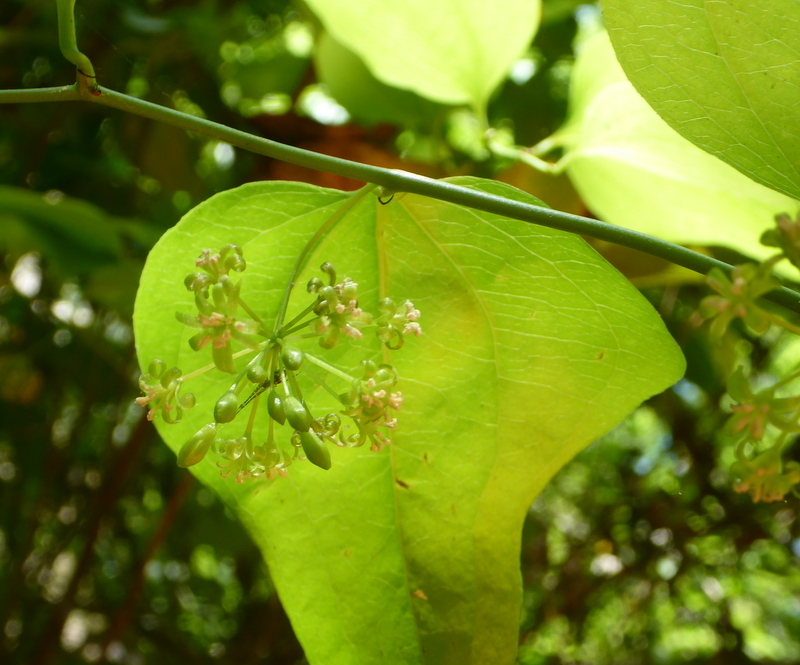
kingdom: Plantae
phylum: Tracheophyta
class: Liliopsida
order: Liliales
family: Smilacaceae
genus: Smilax
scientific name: Smilax bona-nox
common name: Catbrier
